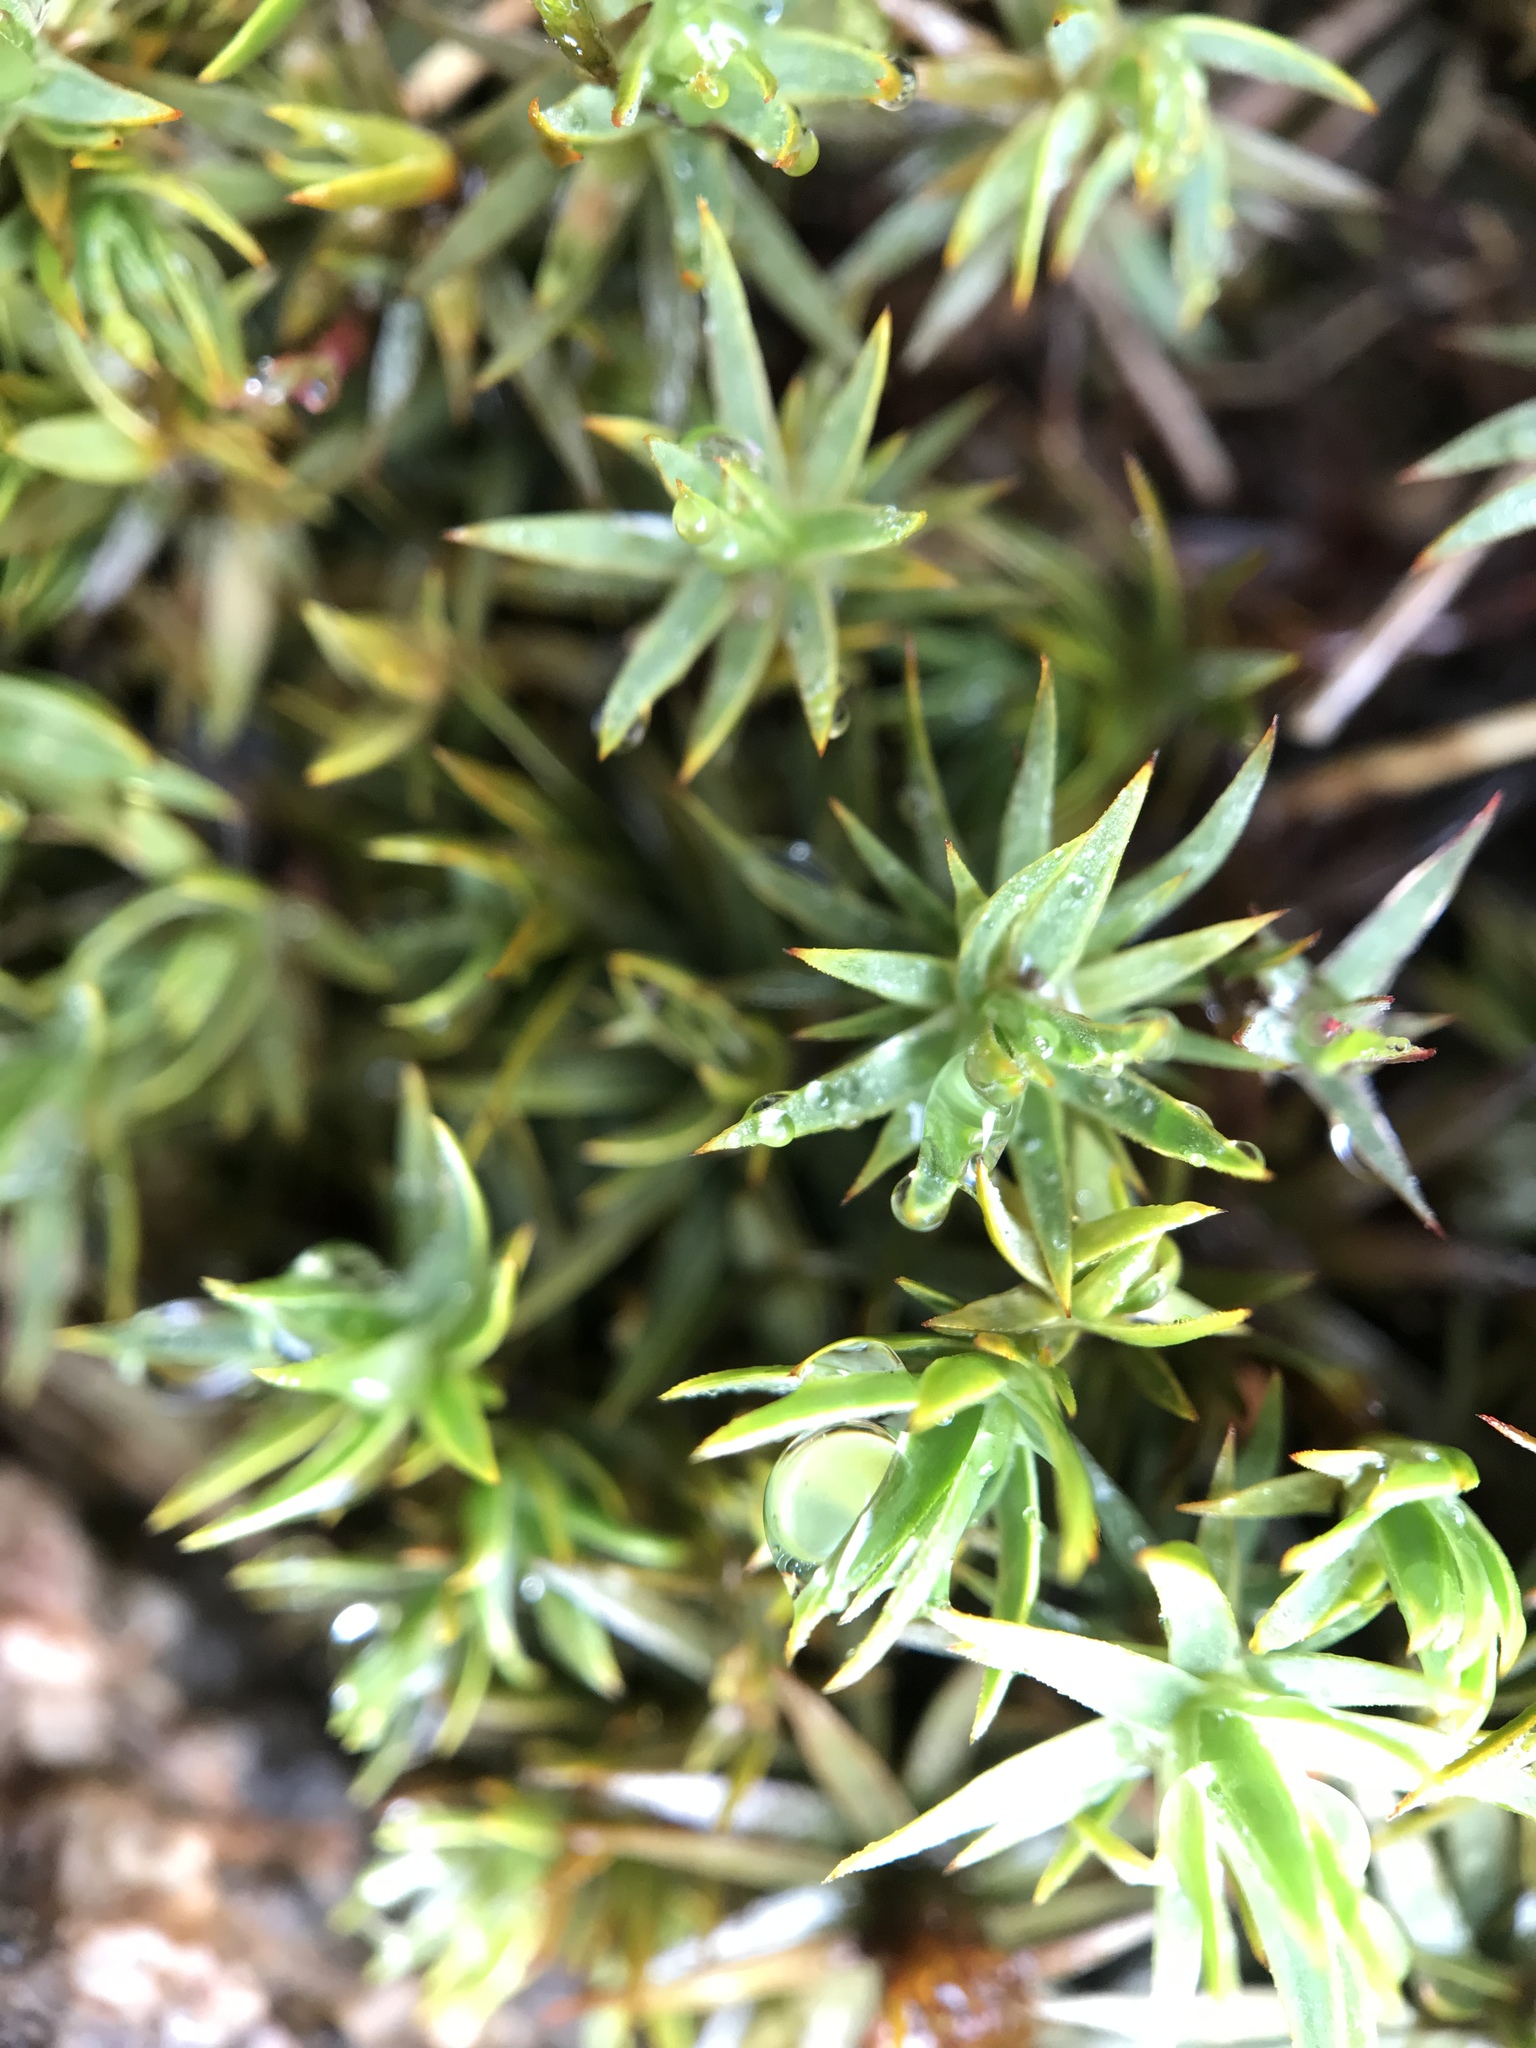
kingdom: Plantae
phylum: Bryophyta
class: Polytrichopsida
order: Polytrichales
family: Polytrichaceae
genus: Pogonatum
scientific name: Pogonatum urnigerum
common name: Urn hair moss
